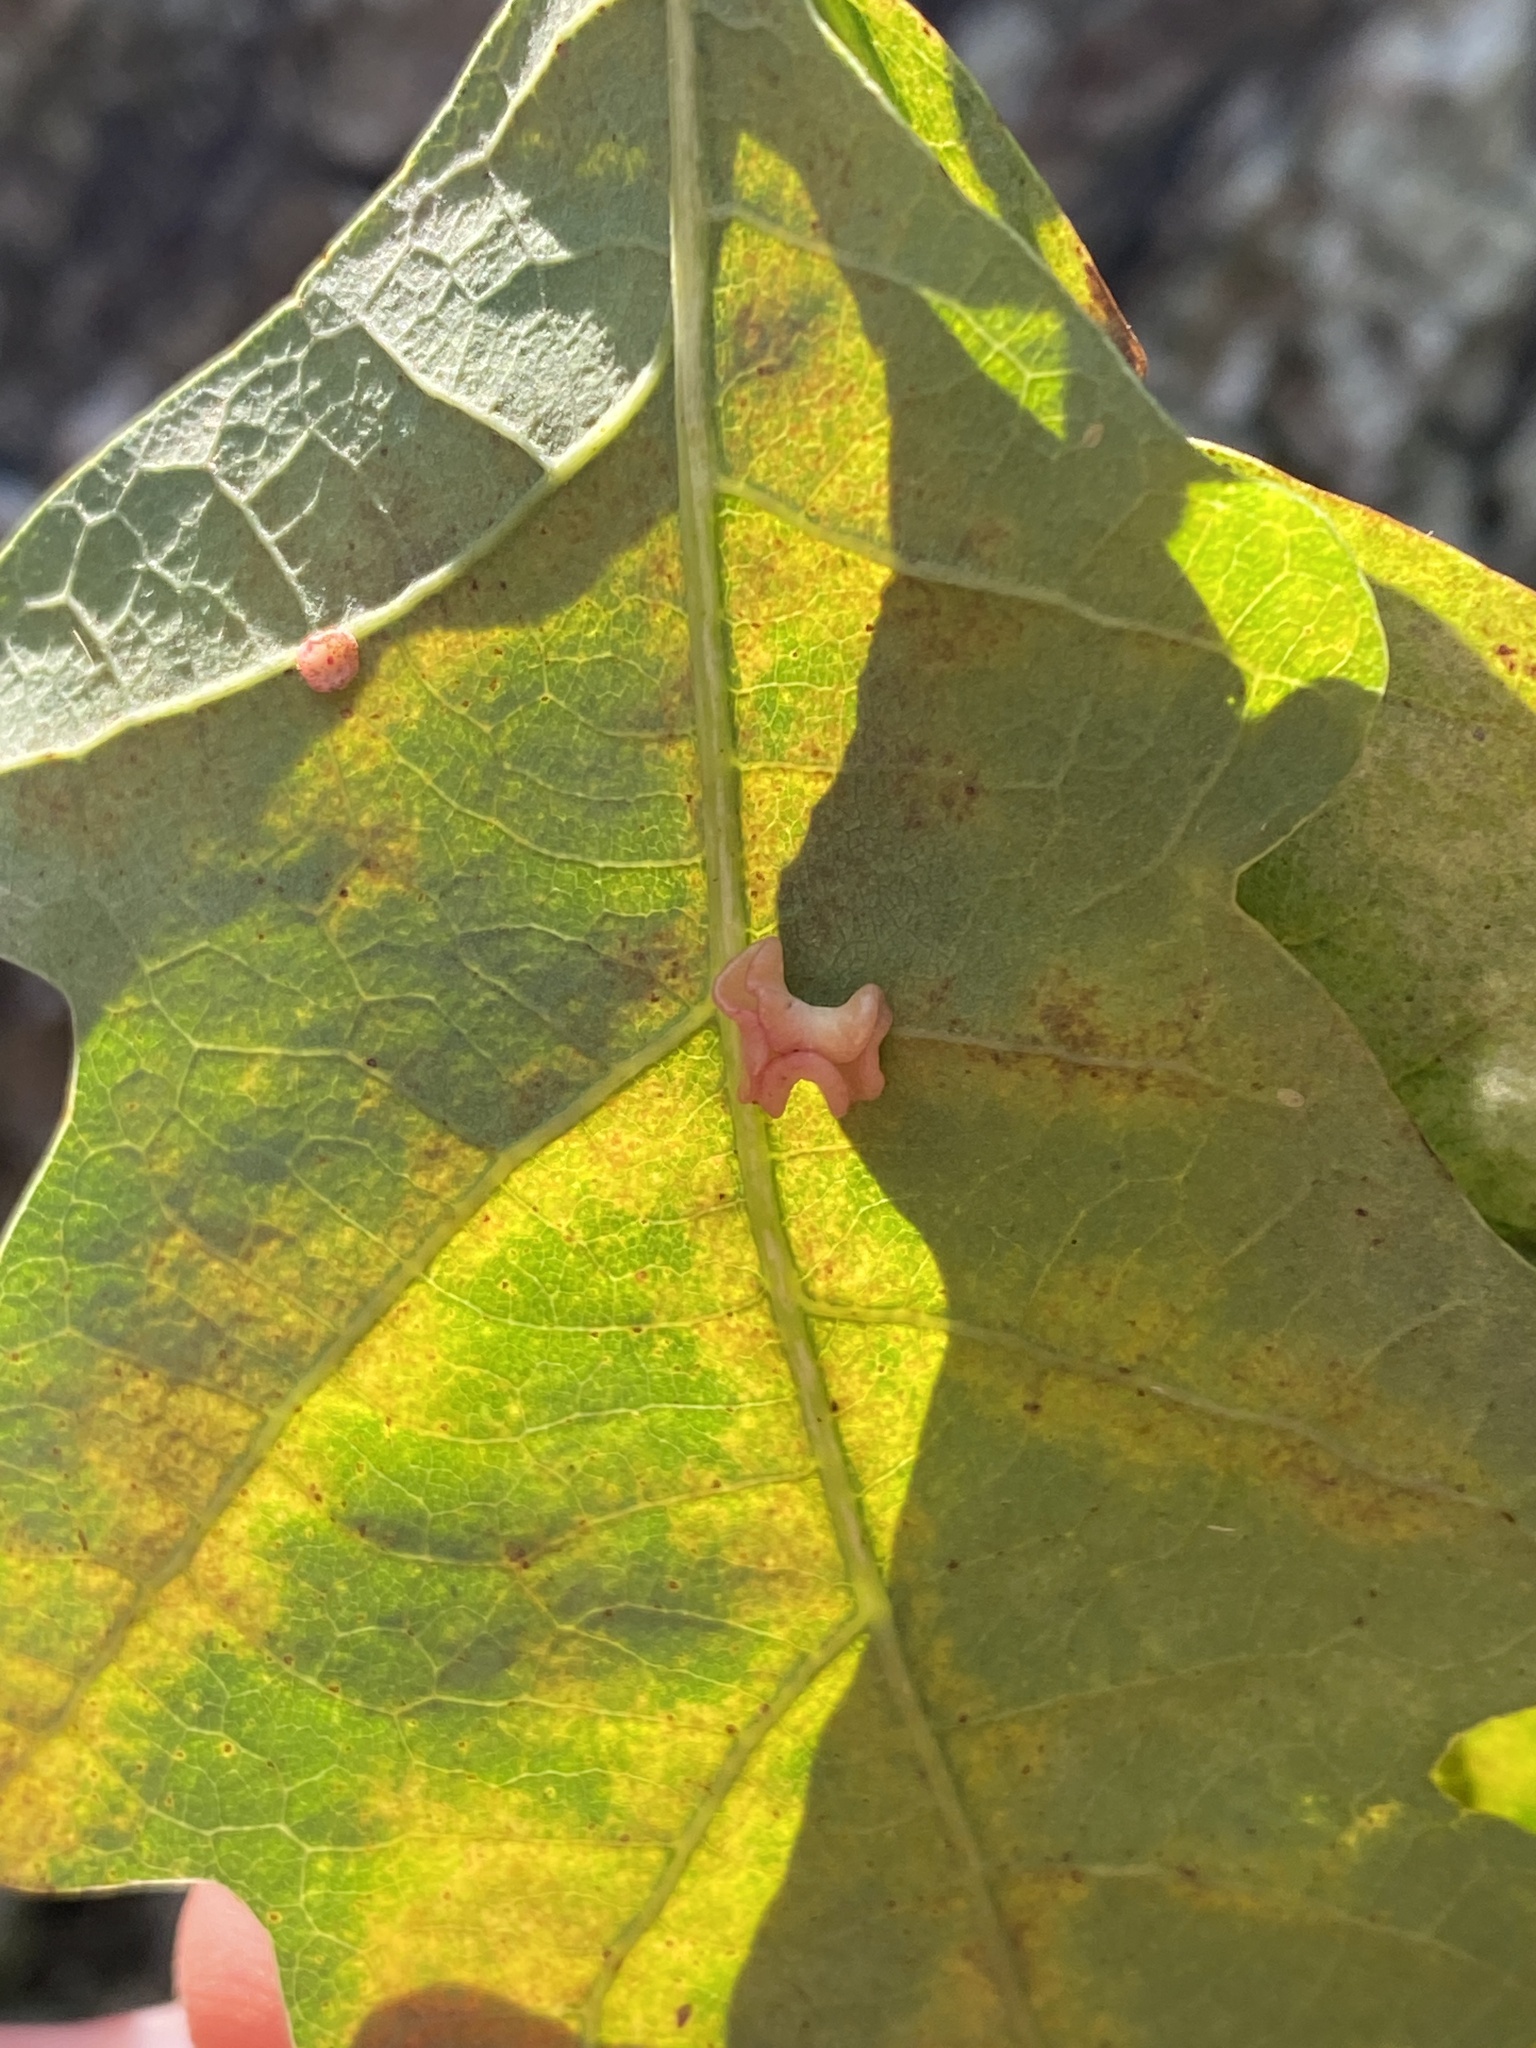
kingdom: Animalia
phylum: Arthropoda
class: Insecta
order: Hymenoptera
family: Cynipidae
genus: Neuroterus
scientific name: Neuroterus albipes
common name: Smooth spangle gall
